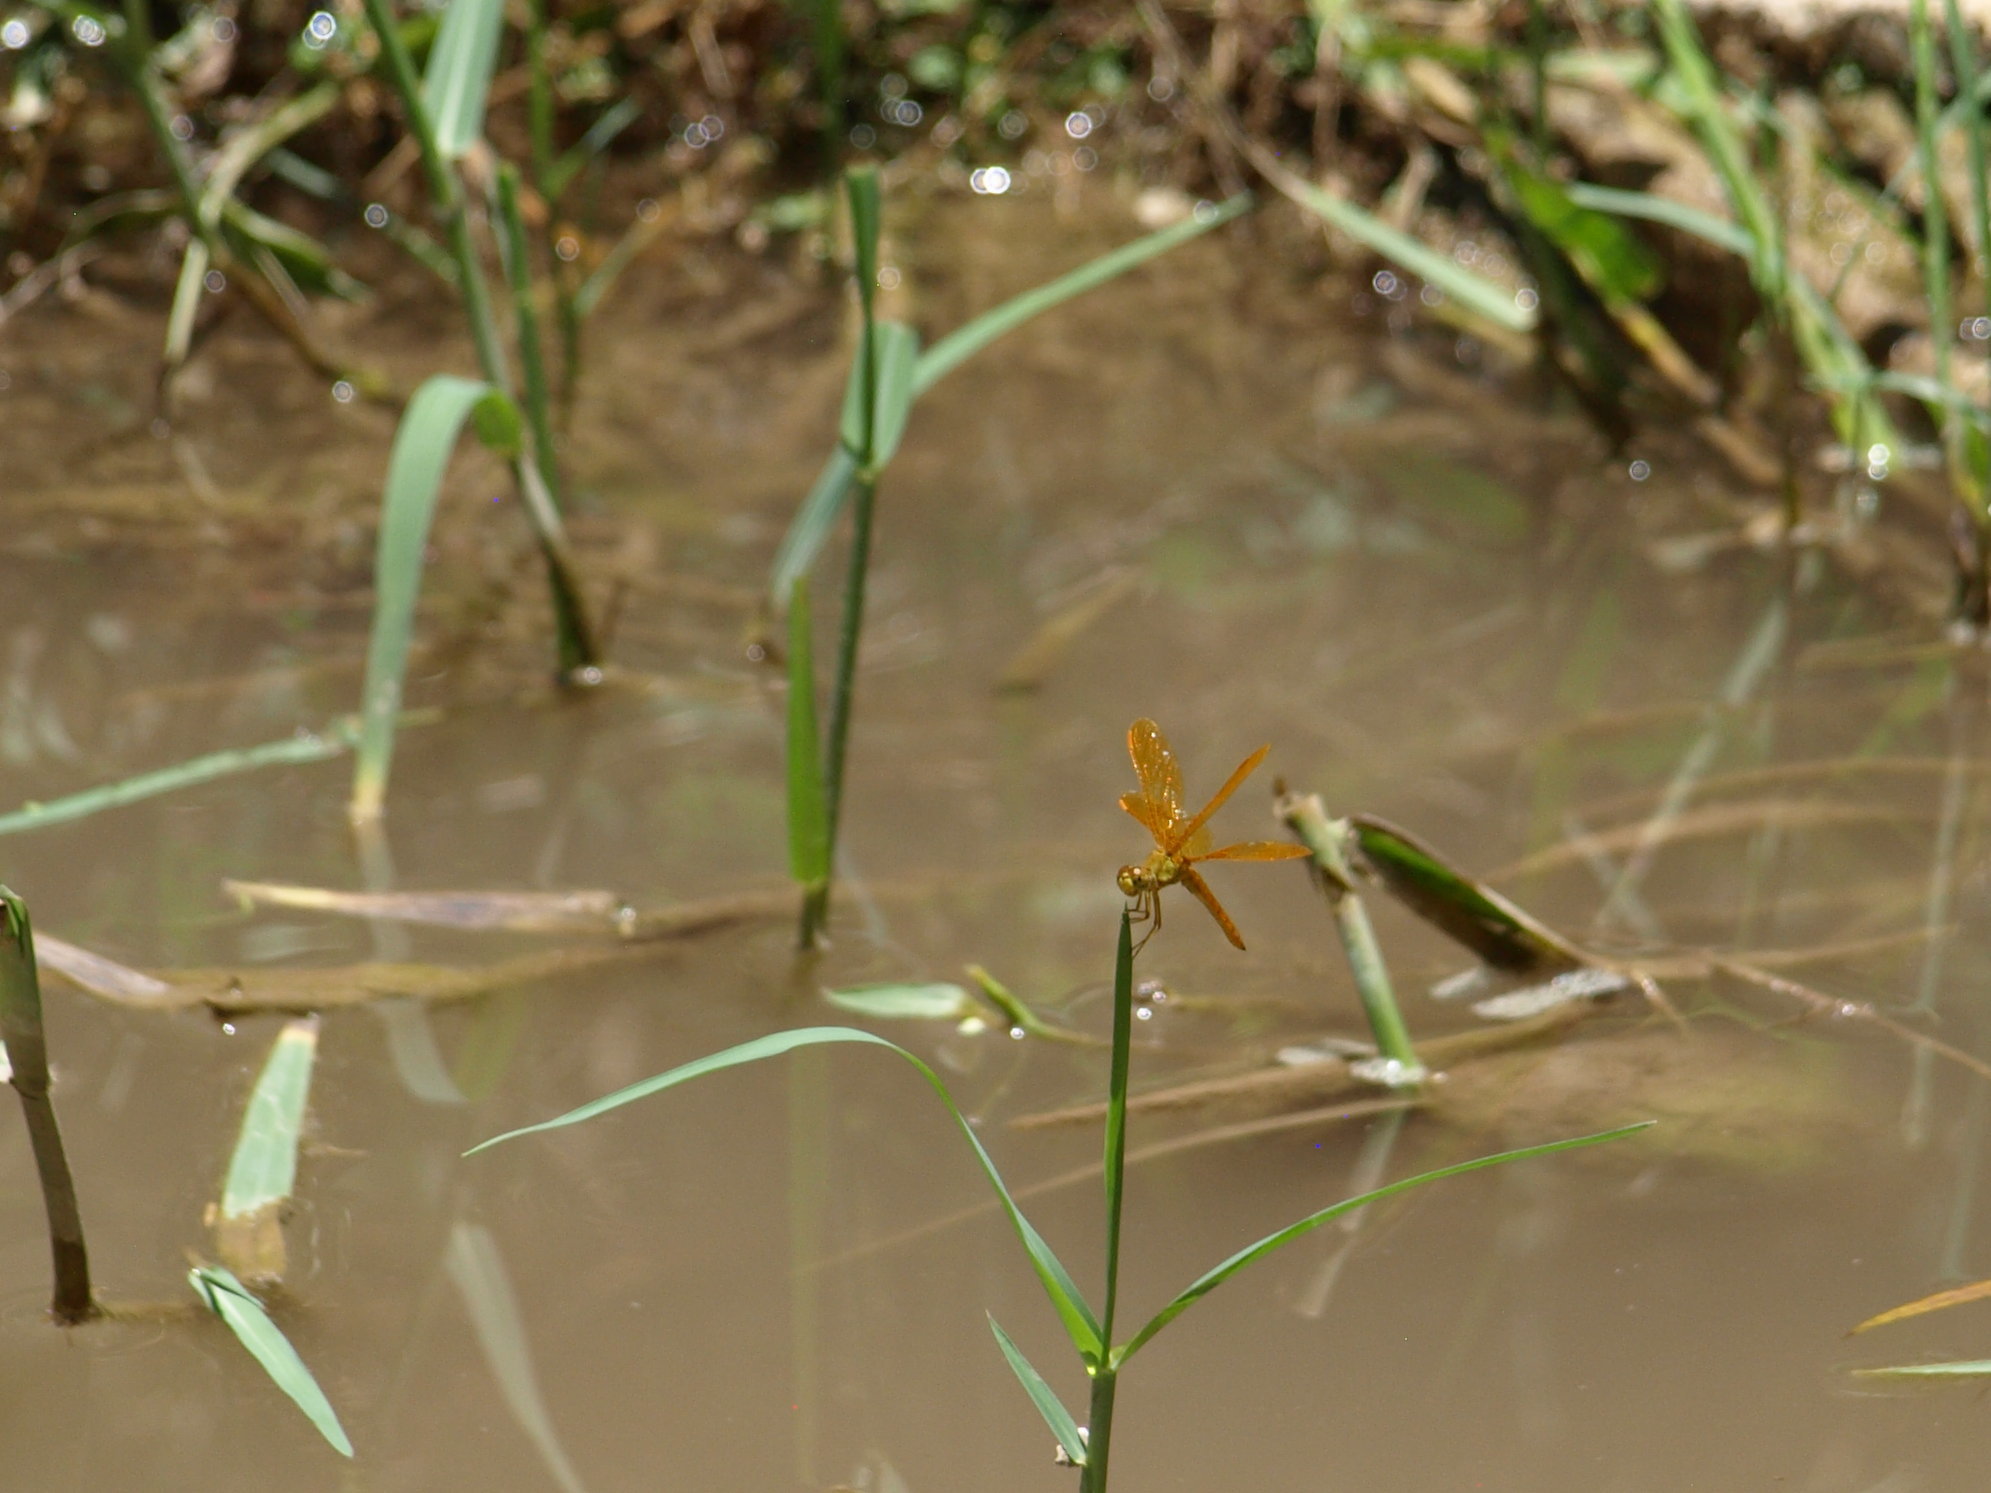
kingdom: Animalia
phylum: Arthropoda
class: Insecta
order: Odonata
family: Libellulidae
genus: Perithemis
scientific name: Perithemis intensa
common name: Mexican amberwing
